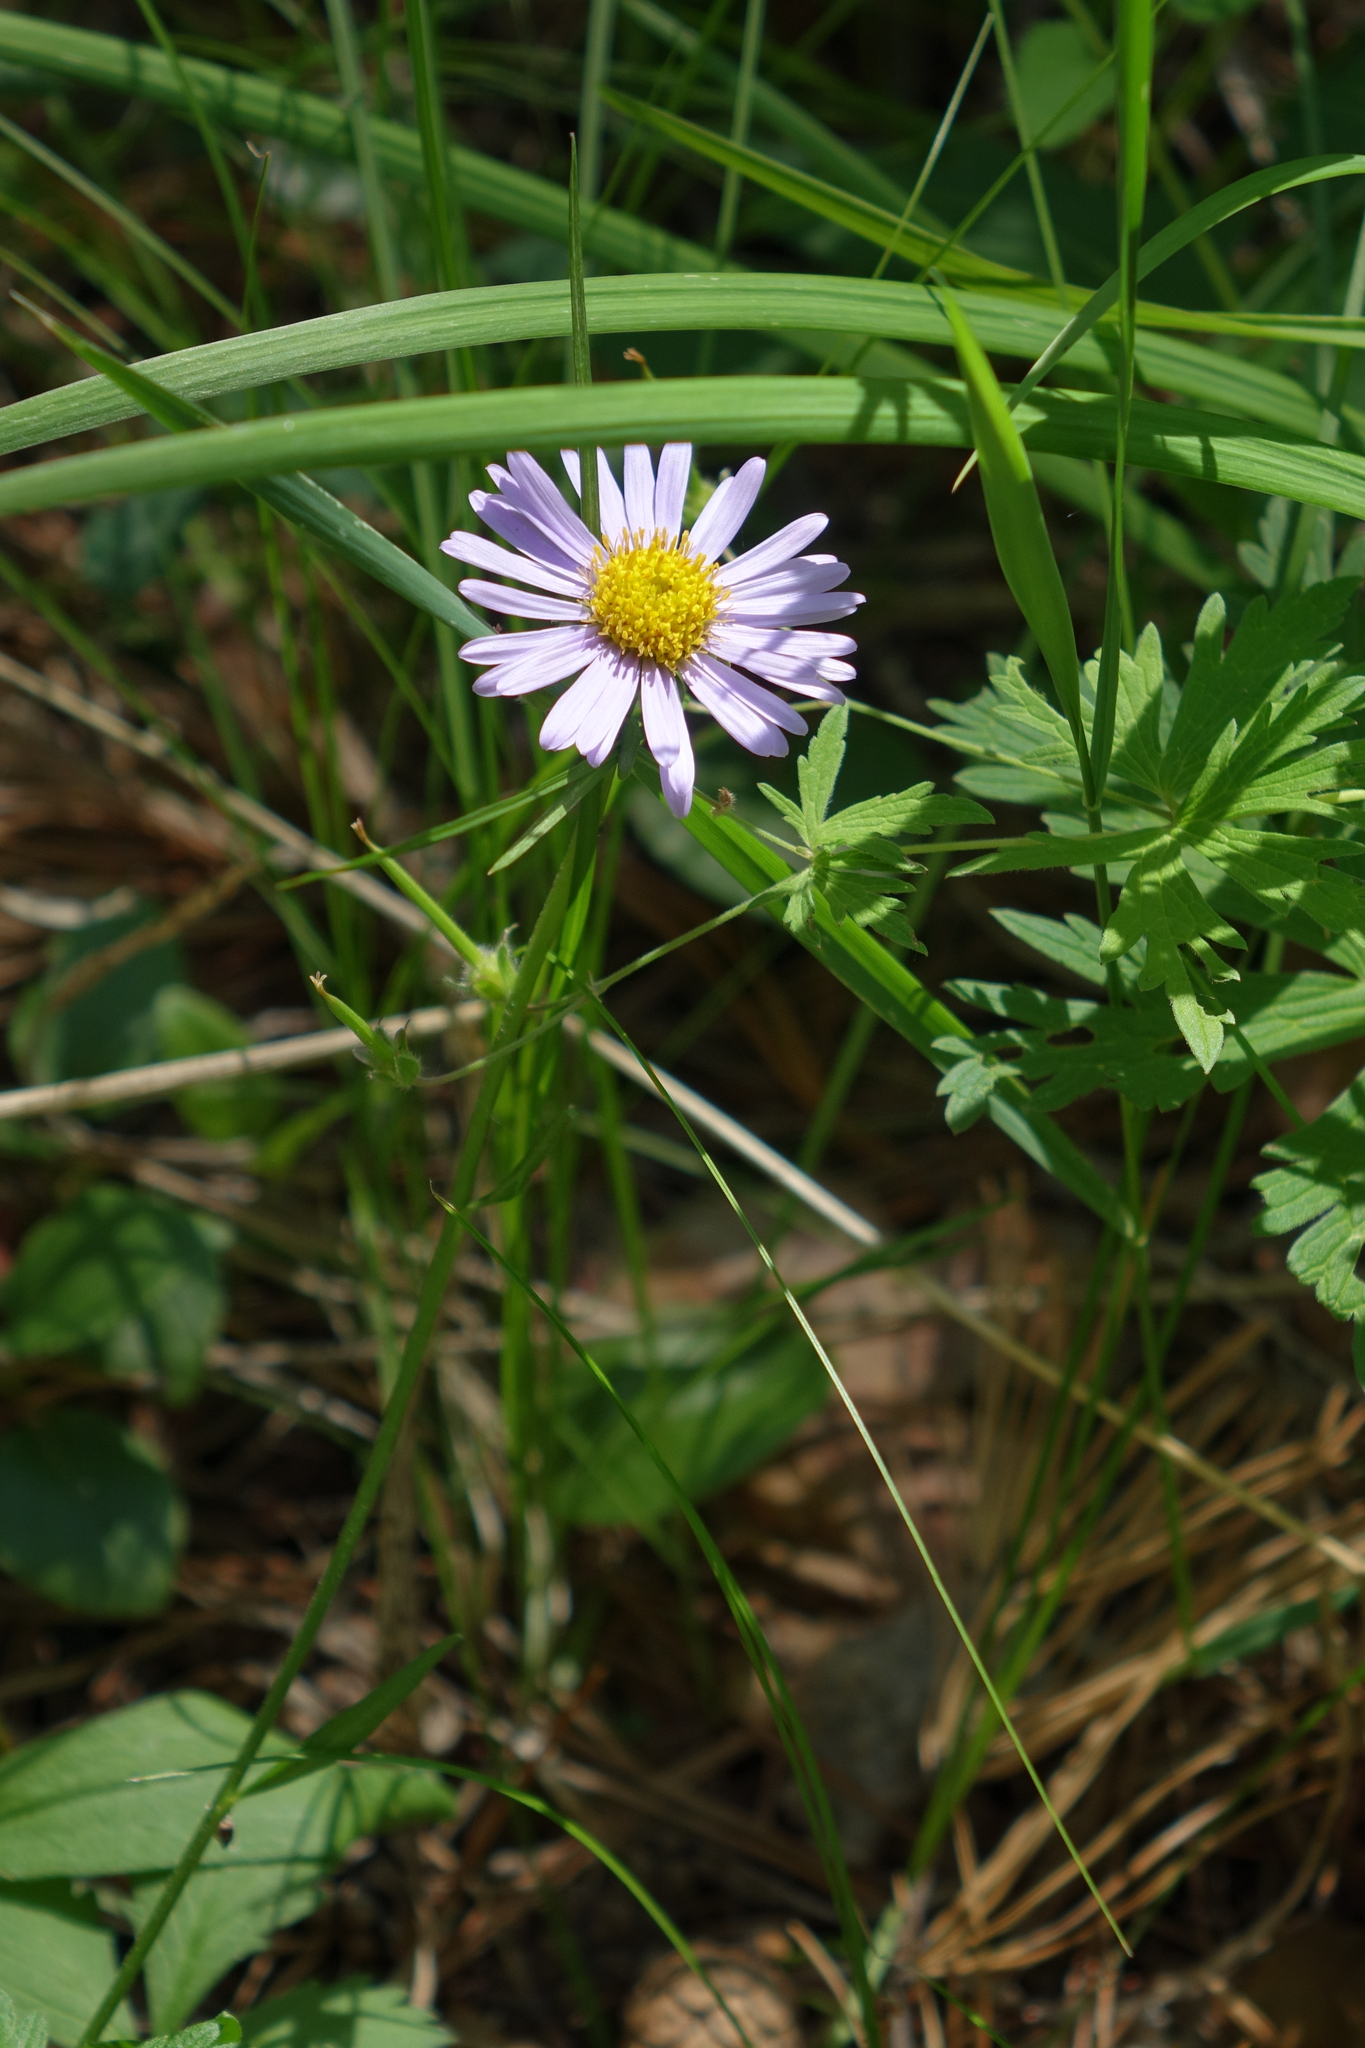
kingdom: Plantae
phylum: Tracheophyta
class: Magnoliopsida
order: Asterales
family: Asteraceae
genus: Aster
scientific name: Aster alpinus
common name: Alpine aster
